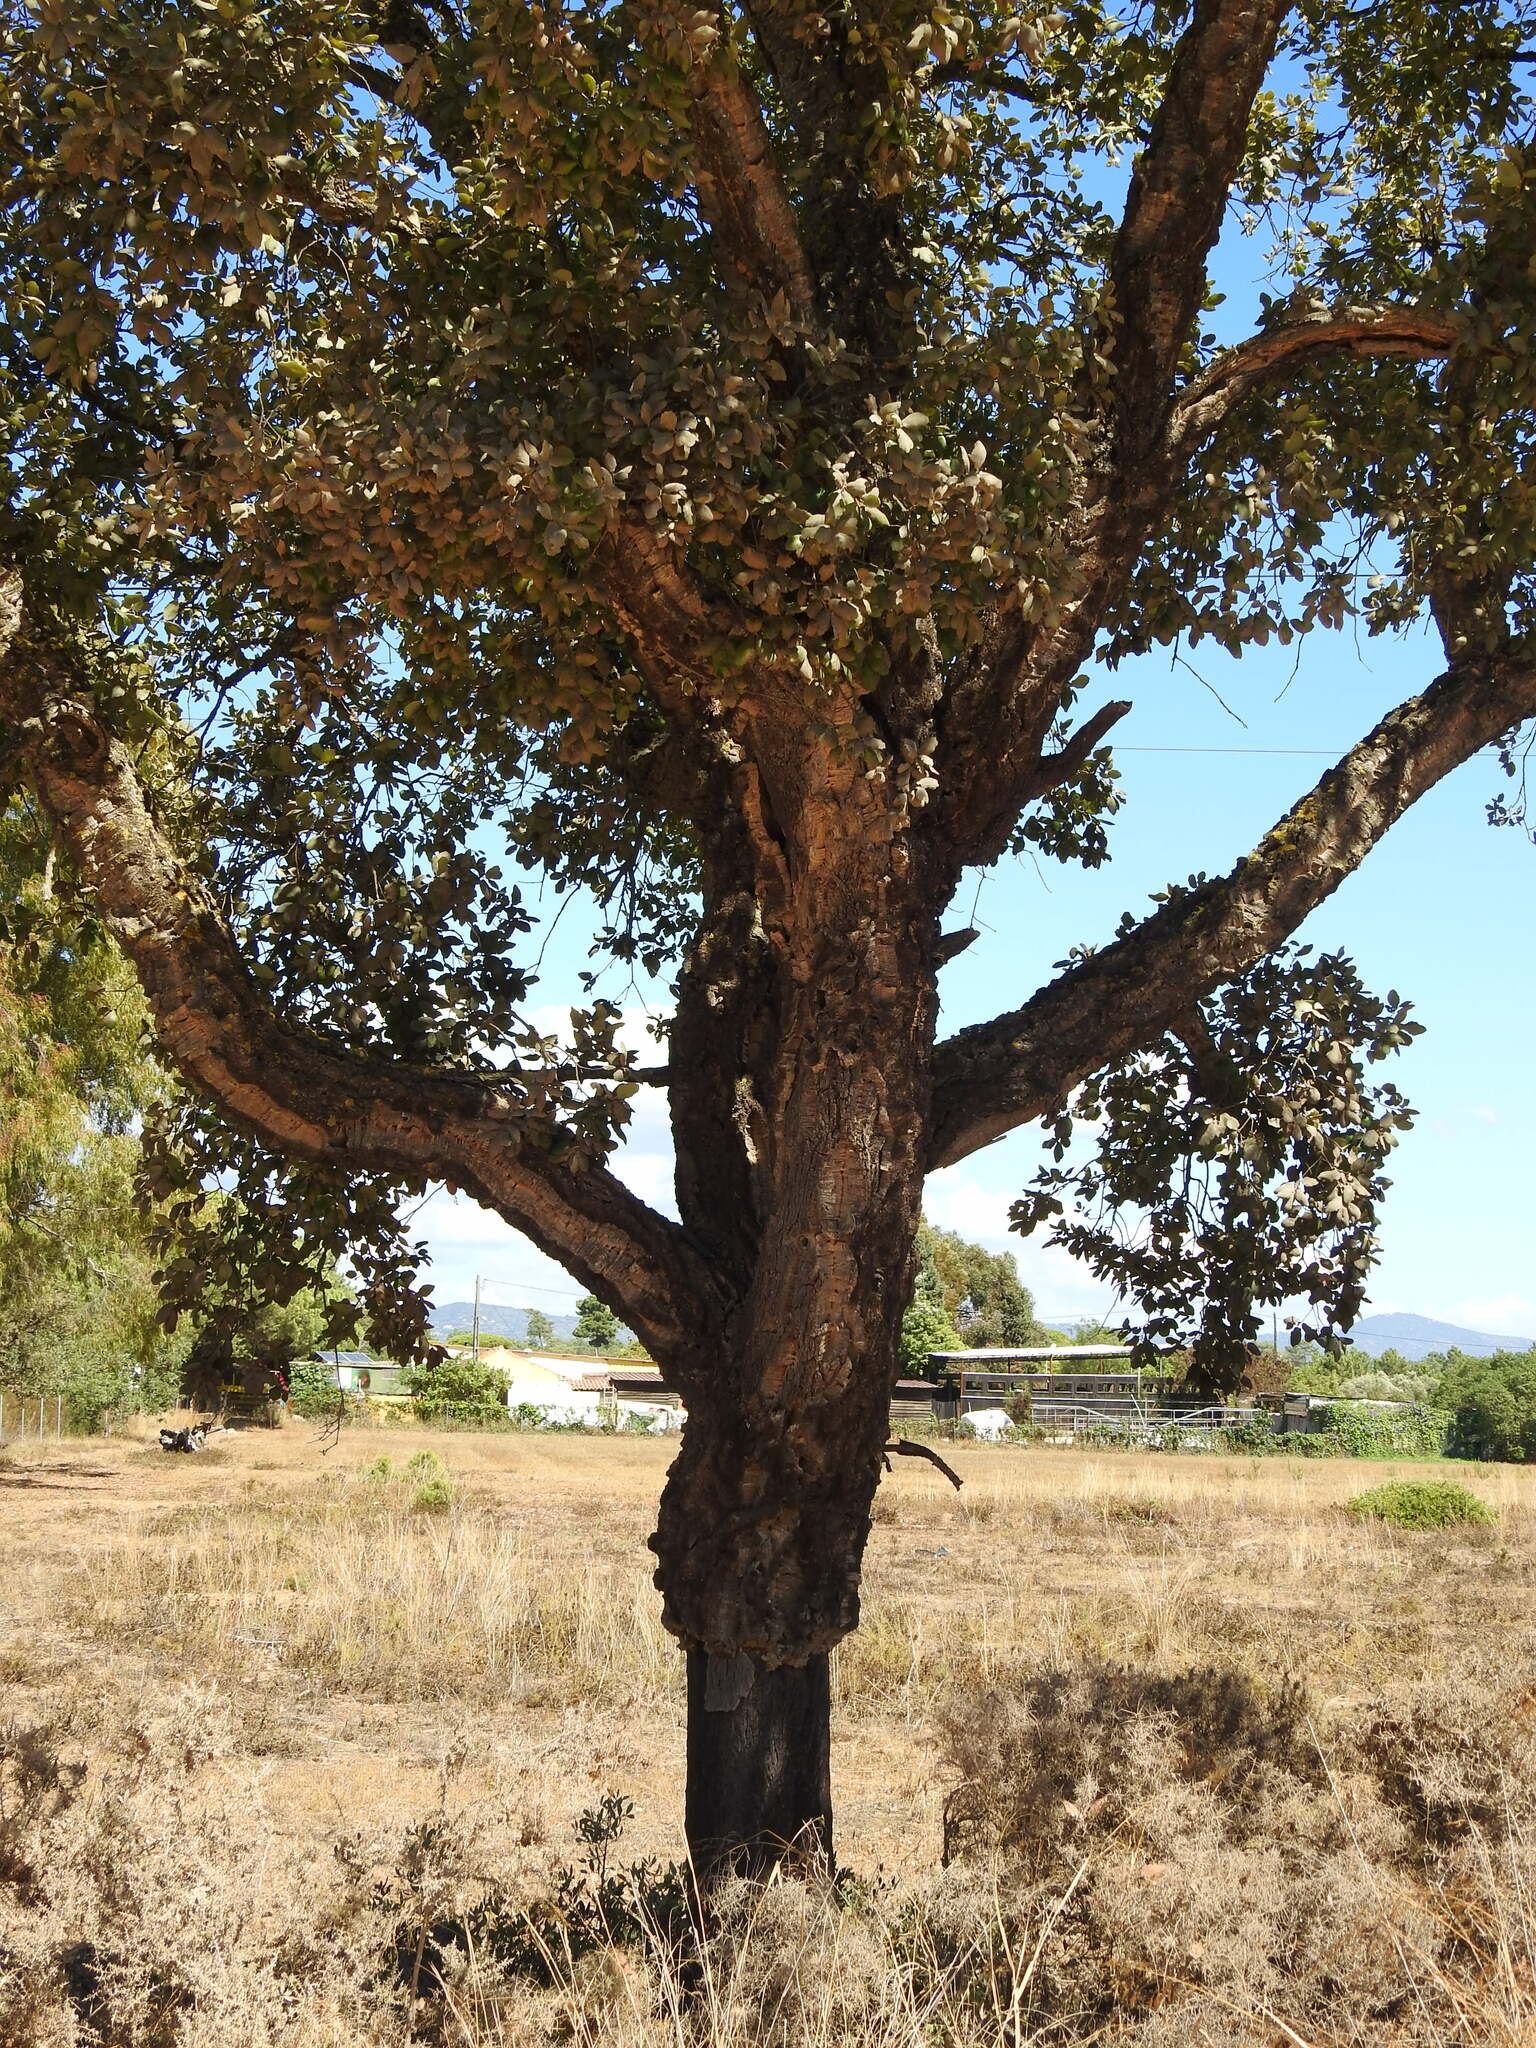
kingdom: Plantae
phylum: Tracheophyta
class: Magnoliopsida
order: Fagales
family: Fagaceae
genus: Quercus
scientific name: Quercus suber
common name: Cork oak
